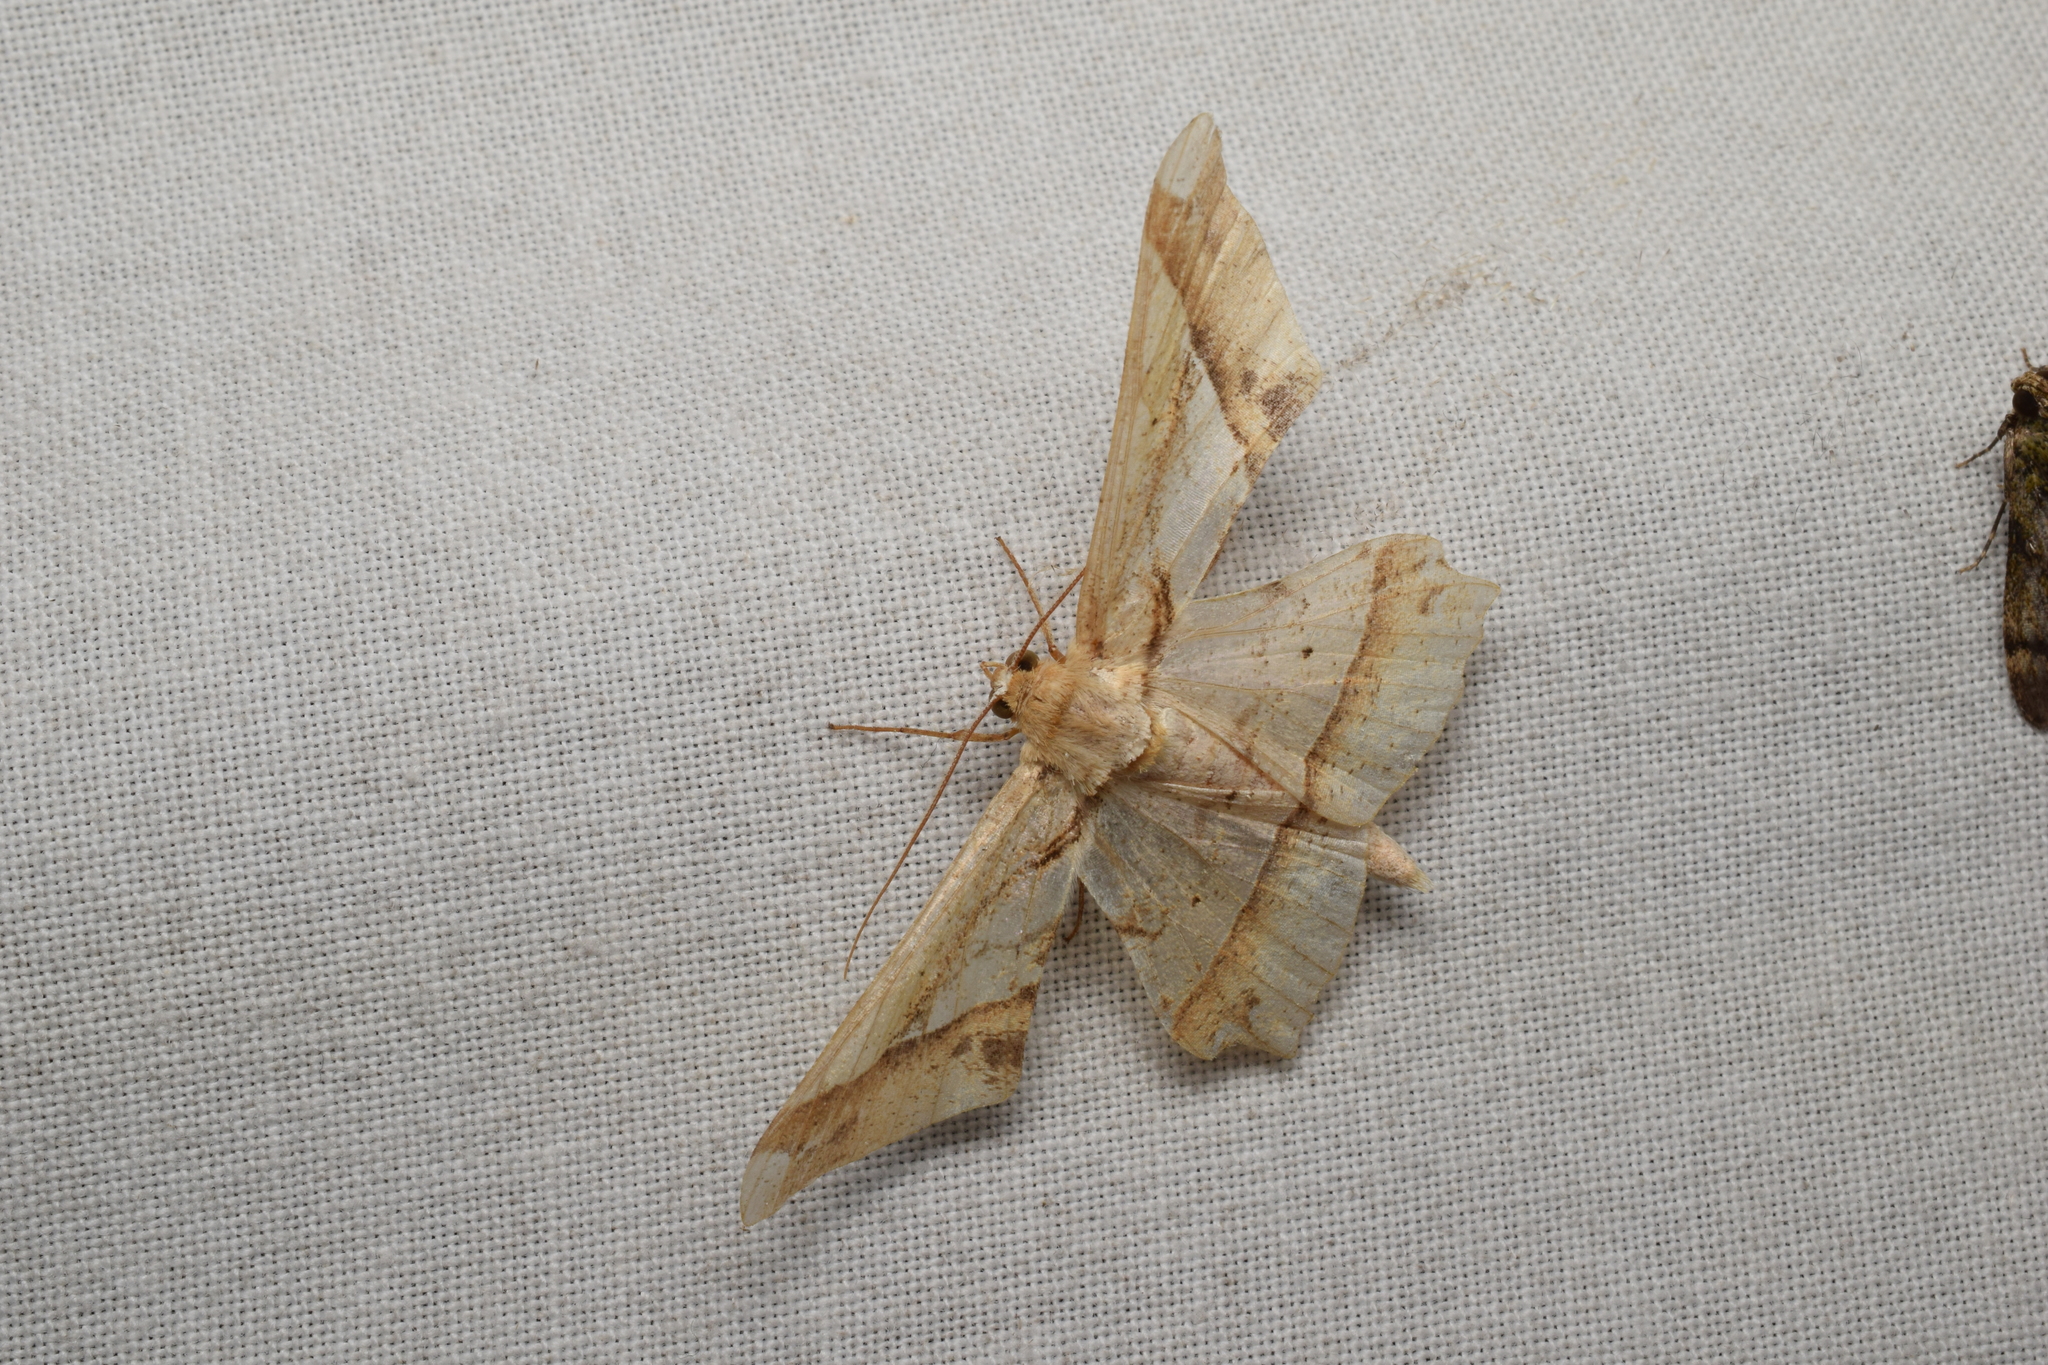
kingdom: Animalia
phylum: Arthropoda
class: Insecta
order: Lepidoptera
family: Geometridae
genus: Krananda
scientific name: Krananda latimarginaria
